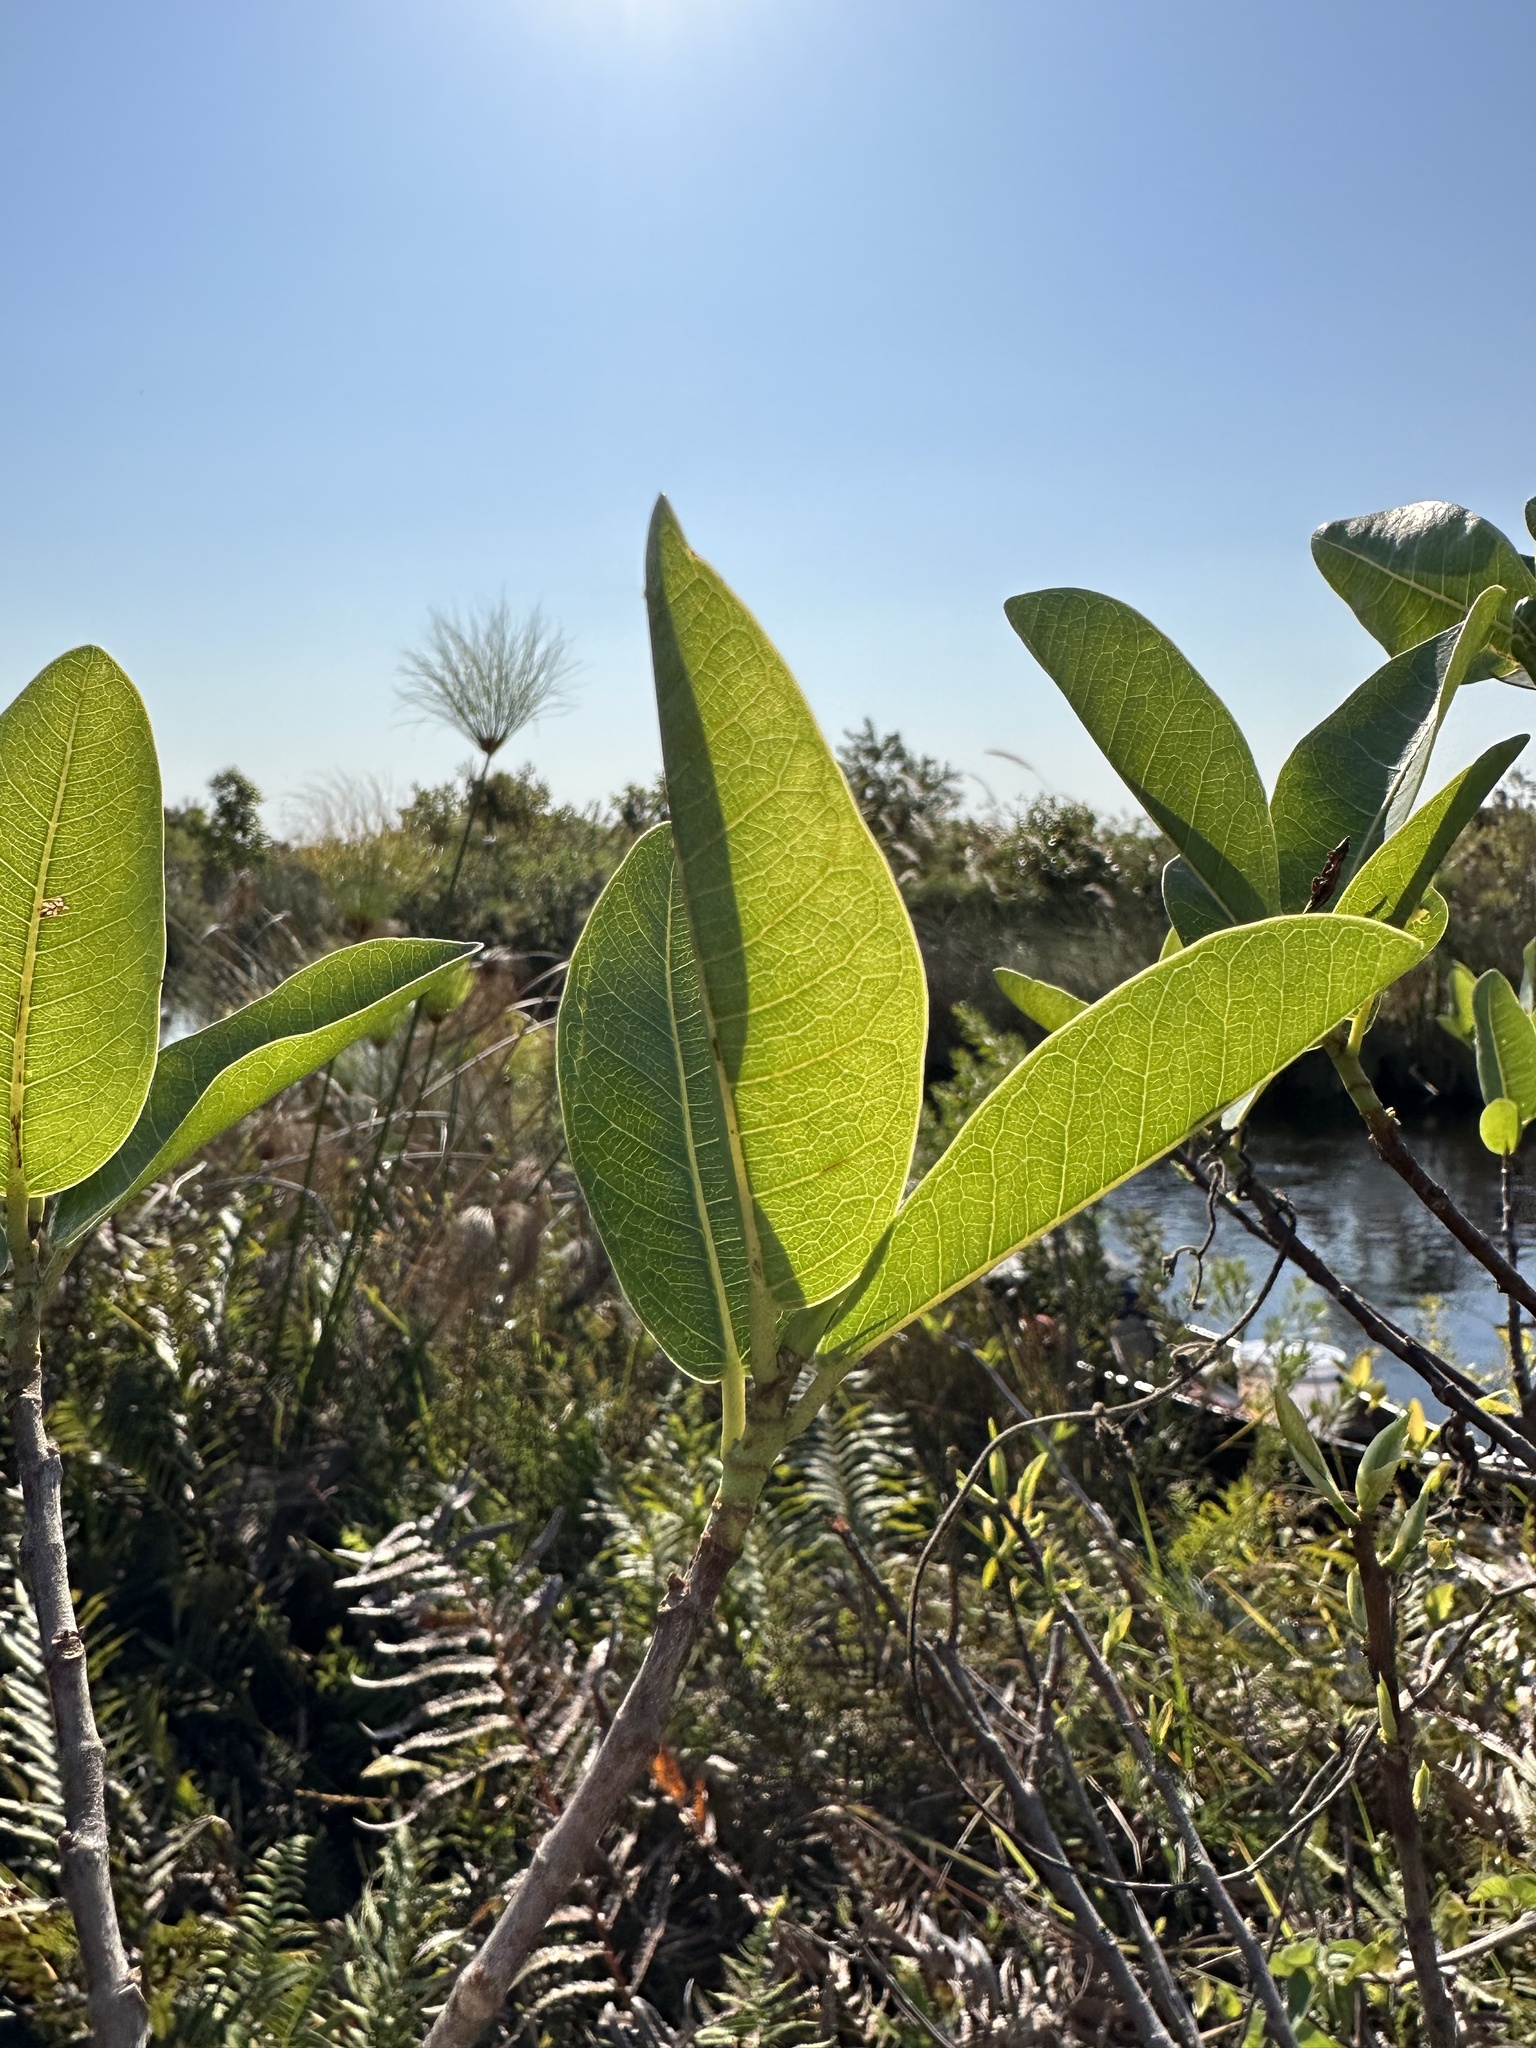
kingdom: Plantae
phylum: Tracheophyta
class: Magnoliopsida
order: Rosales
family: Moraceae
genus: Ficus
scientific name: Ficus verruculosa
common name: Water fig
